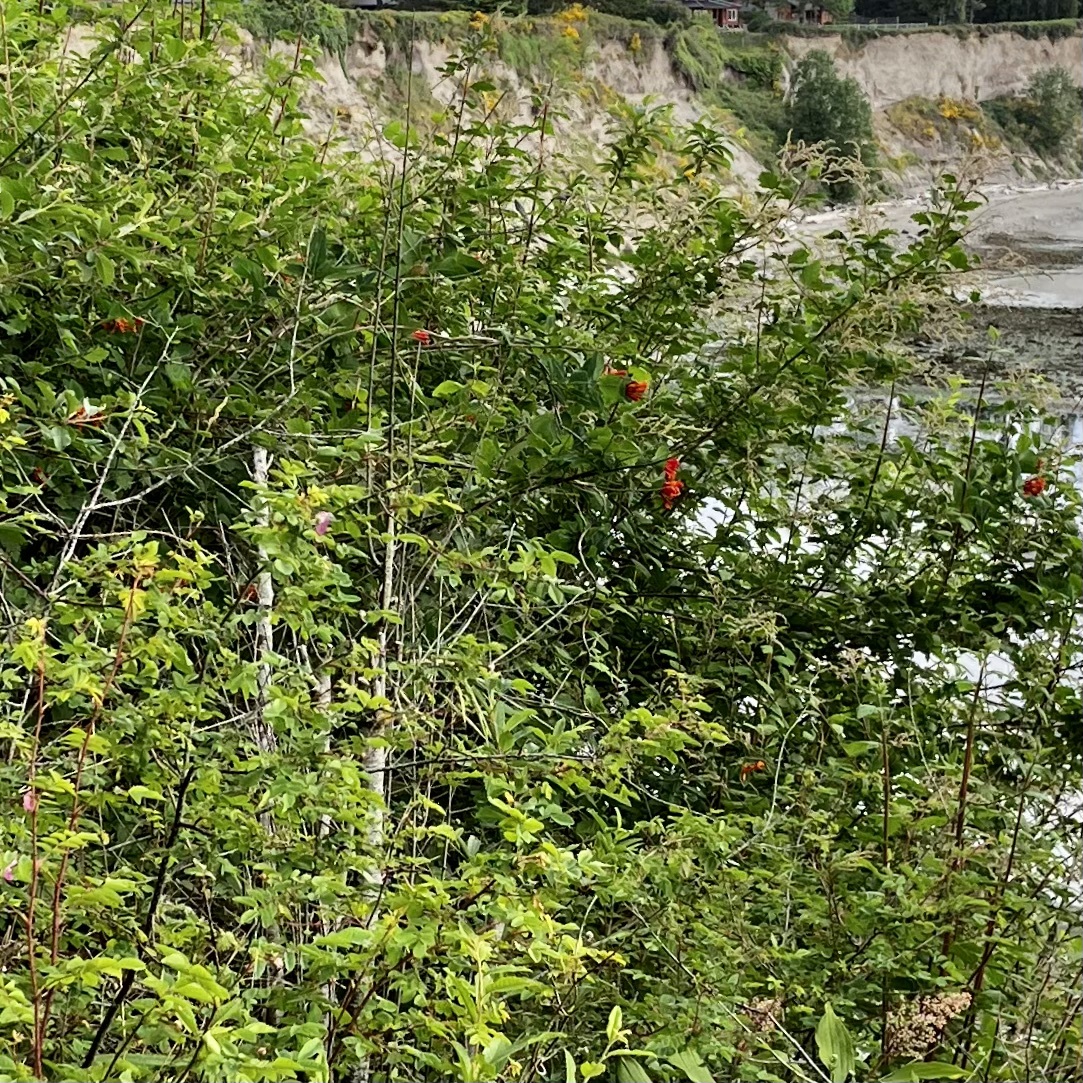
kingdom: Plantae
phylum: Tracheophyta
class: Magnoliopsida
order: Dipsacales
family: Caprifoliaceae
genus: Lonicera
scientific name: Lonicera ciliosa
